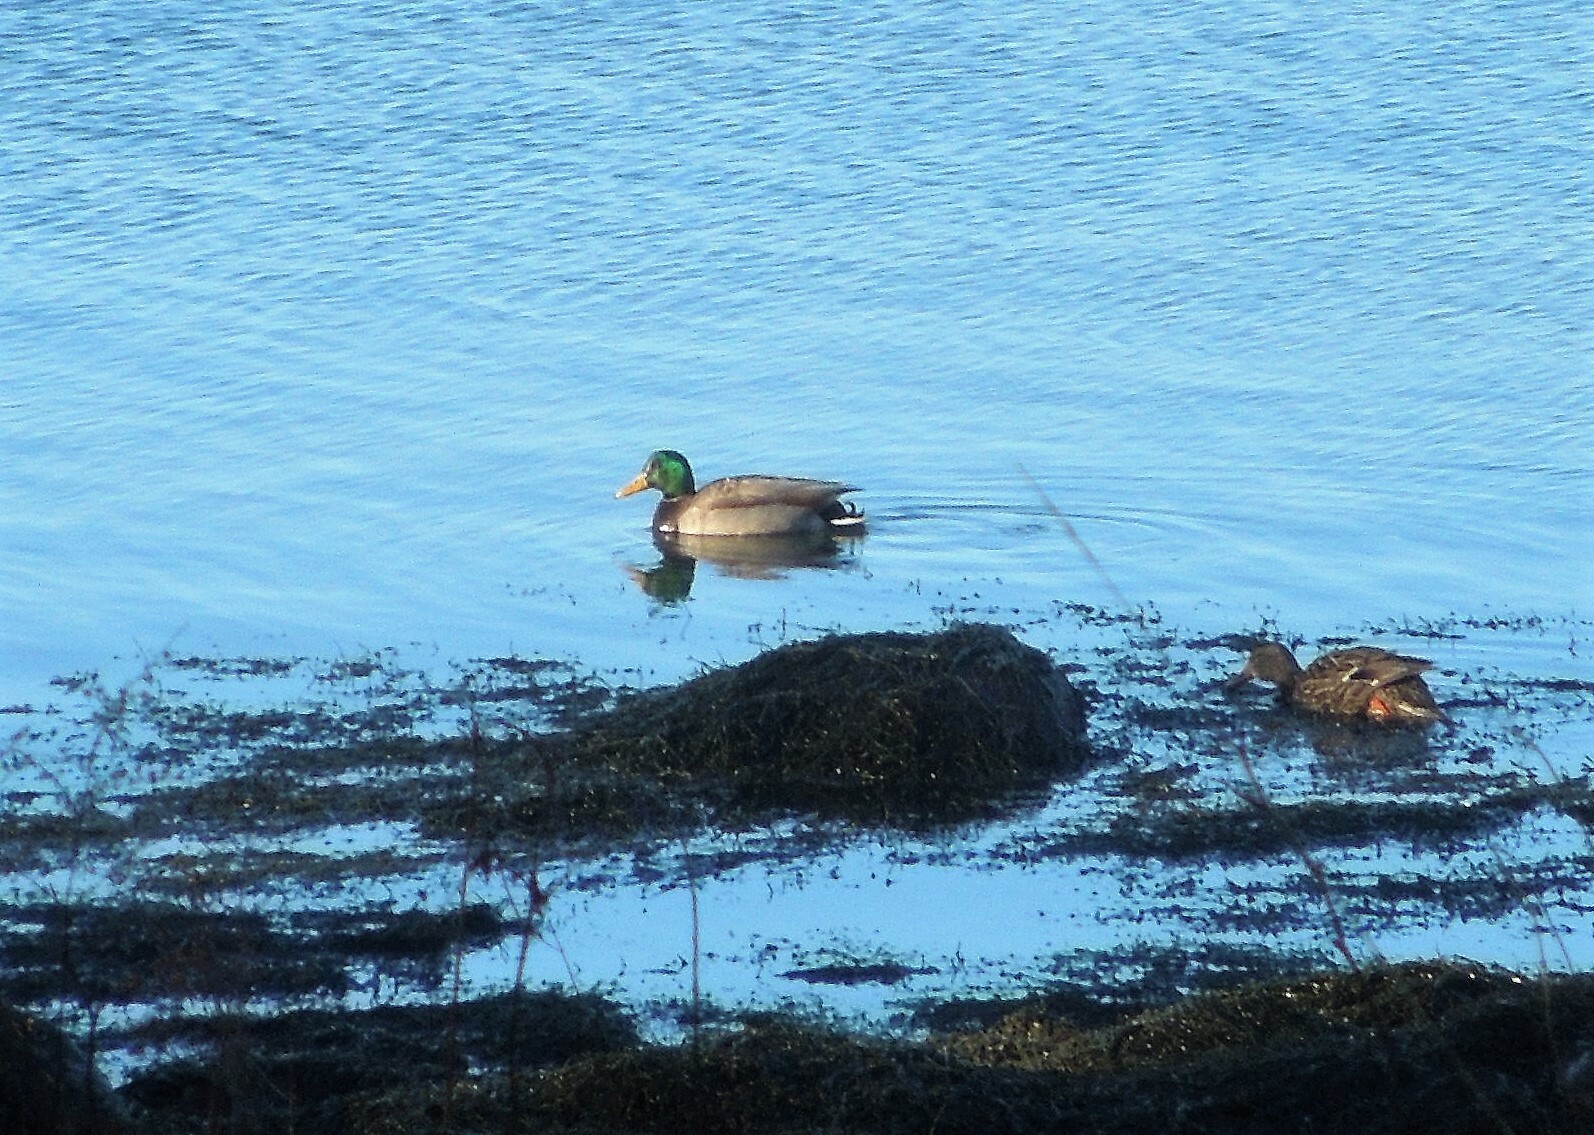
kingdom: Animalia
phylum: Chordata
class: Aves
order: Anseriformes
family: Anatidae
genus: Anas
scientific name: Anas platyrhynchos
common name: Mallard
